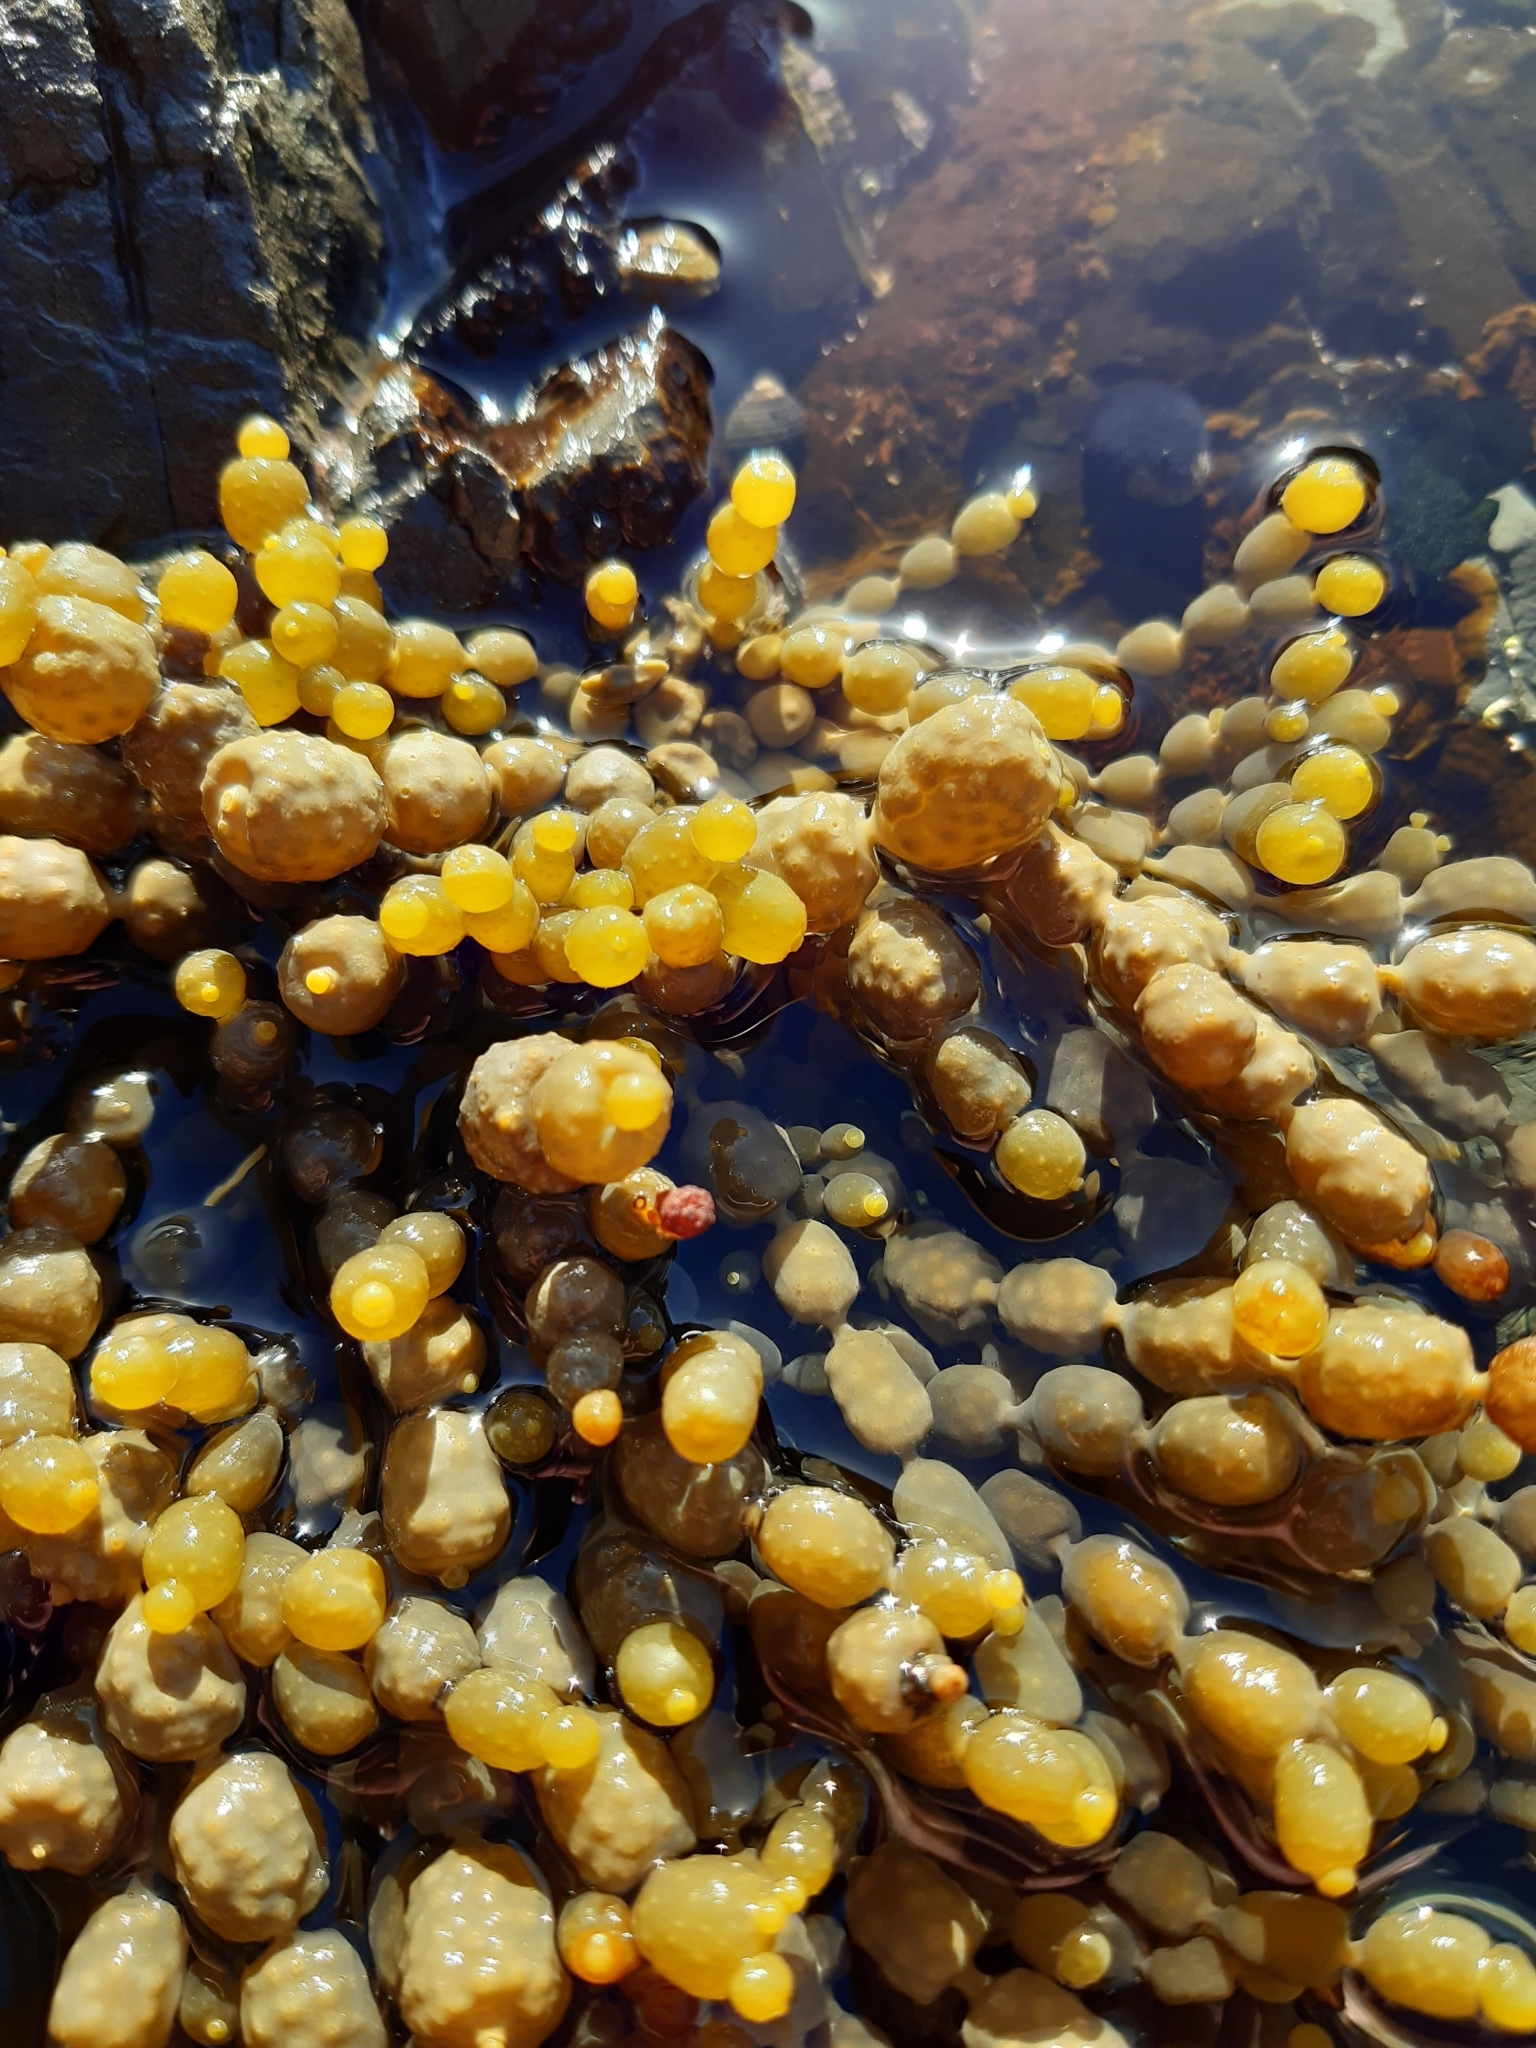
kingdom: Chromista
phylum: Ochrophyta
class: Phaeophyceae
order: Fucales
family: Hormosiraceae
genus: Hormosira
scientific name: Hormosira banksii
